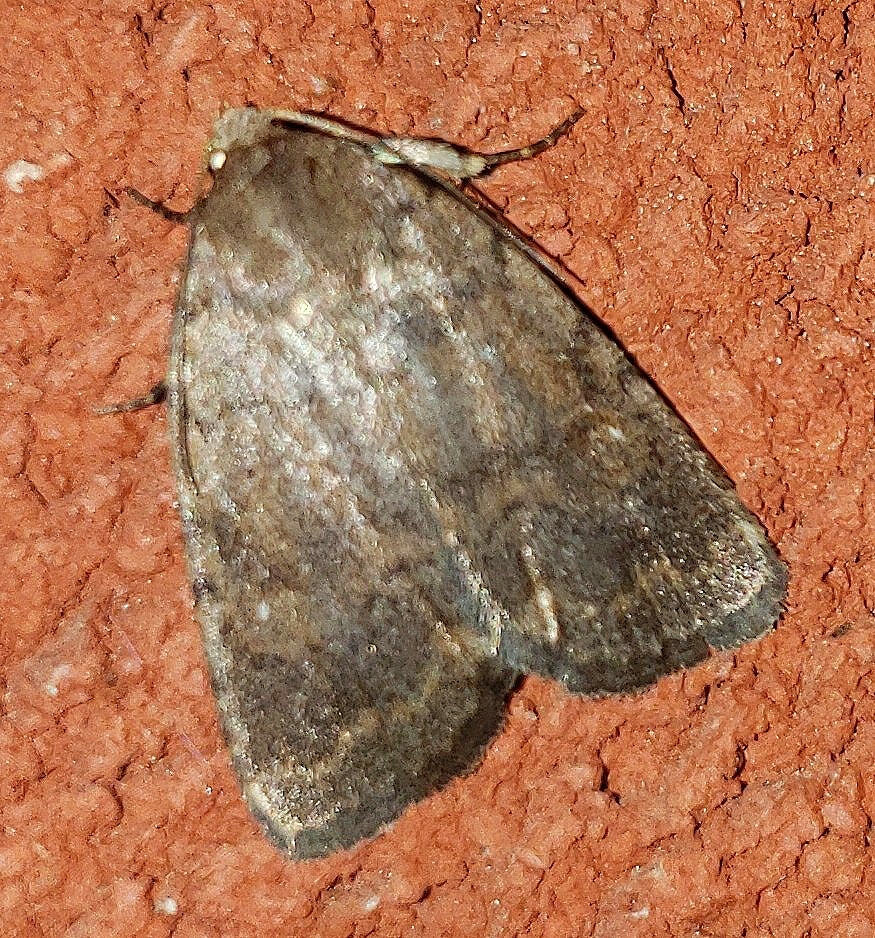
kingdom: Animalia
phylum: Arthropoda
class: Insecta
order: Lepidoptera
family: Noctuidae
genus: Athetis
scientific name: Athetis tarda
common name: Slowpoke moth
